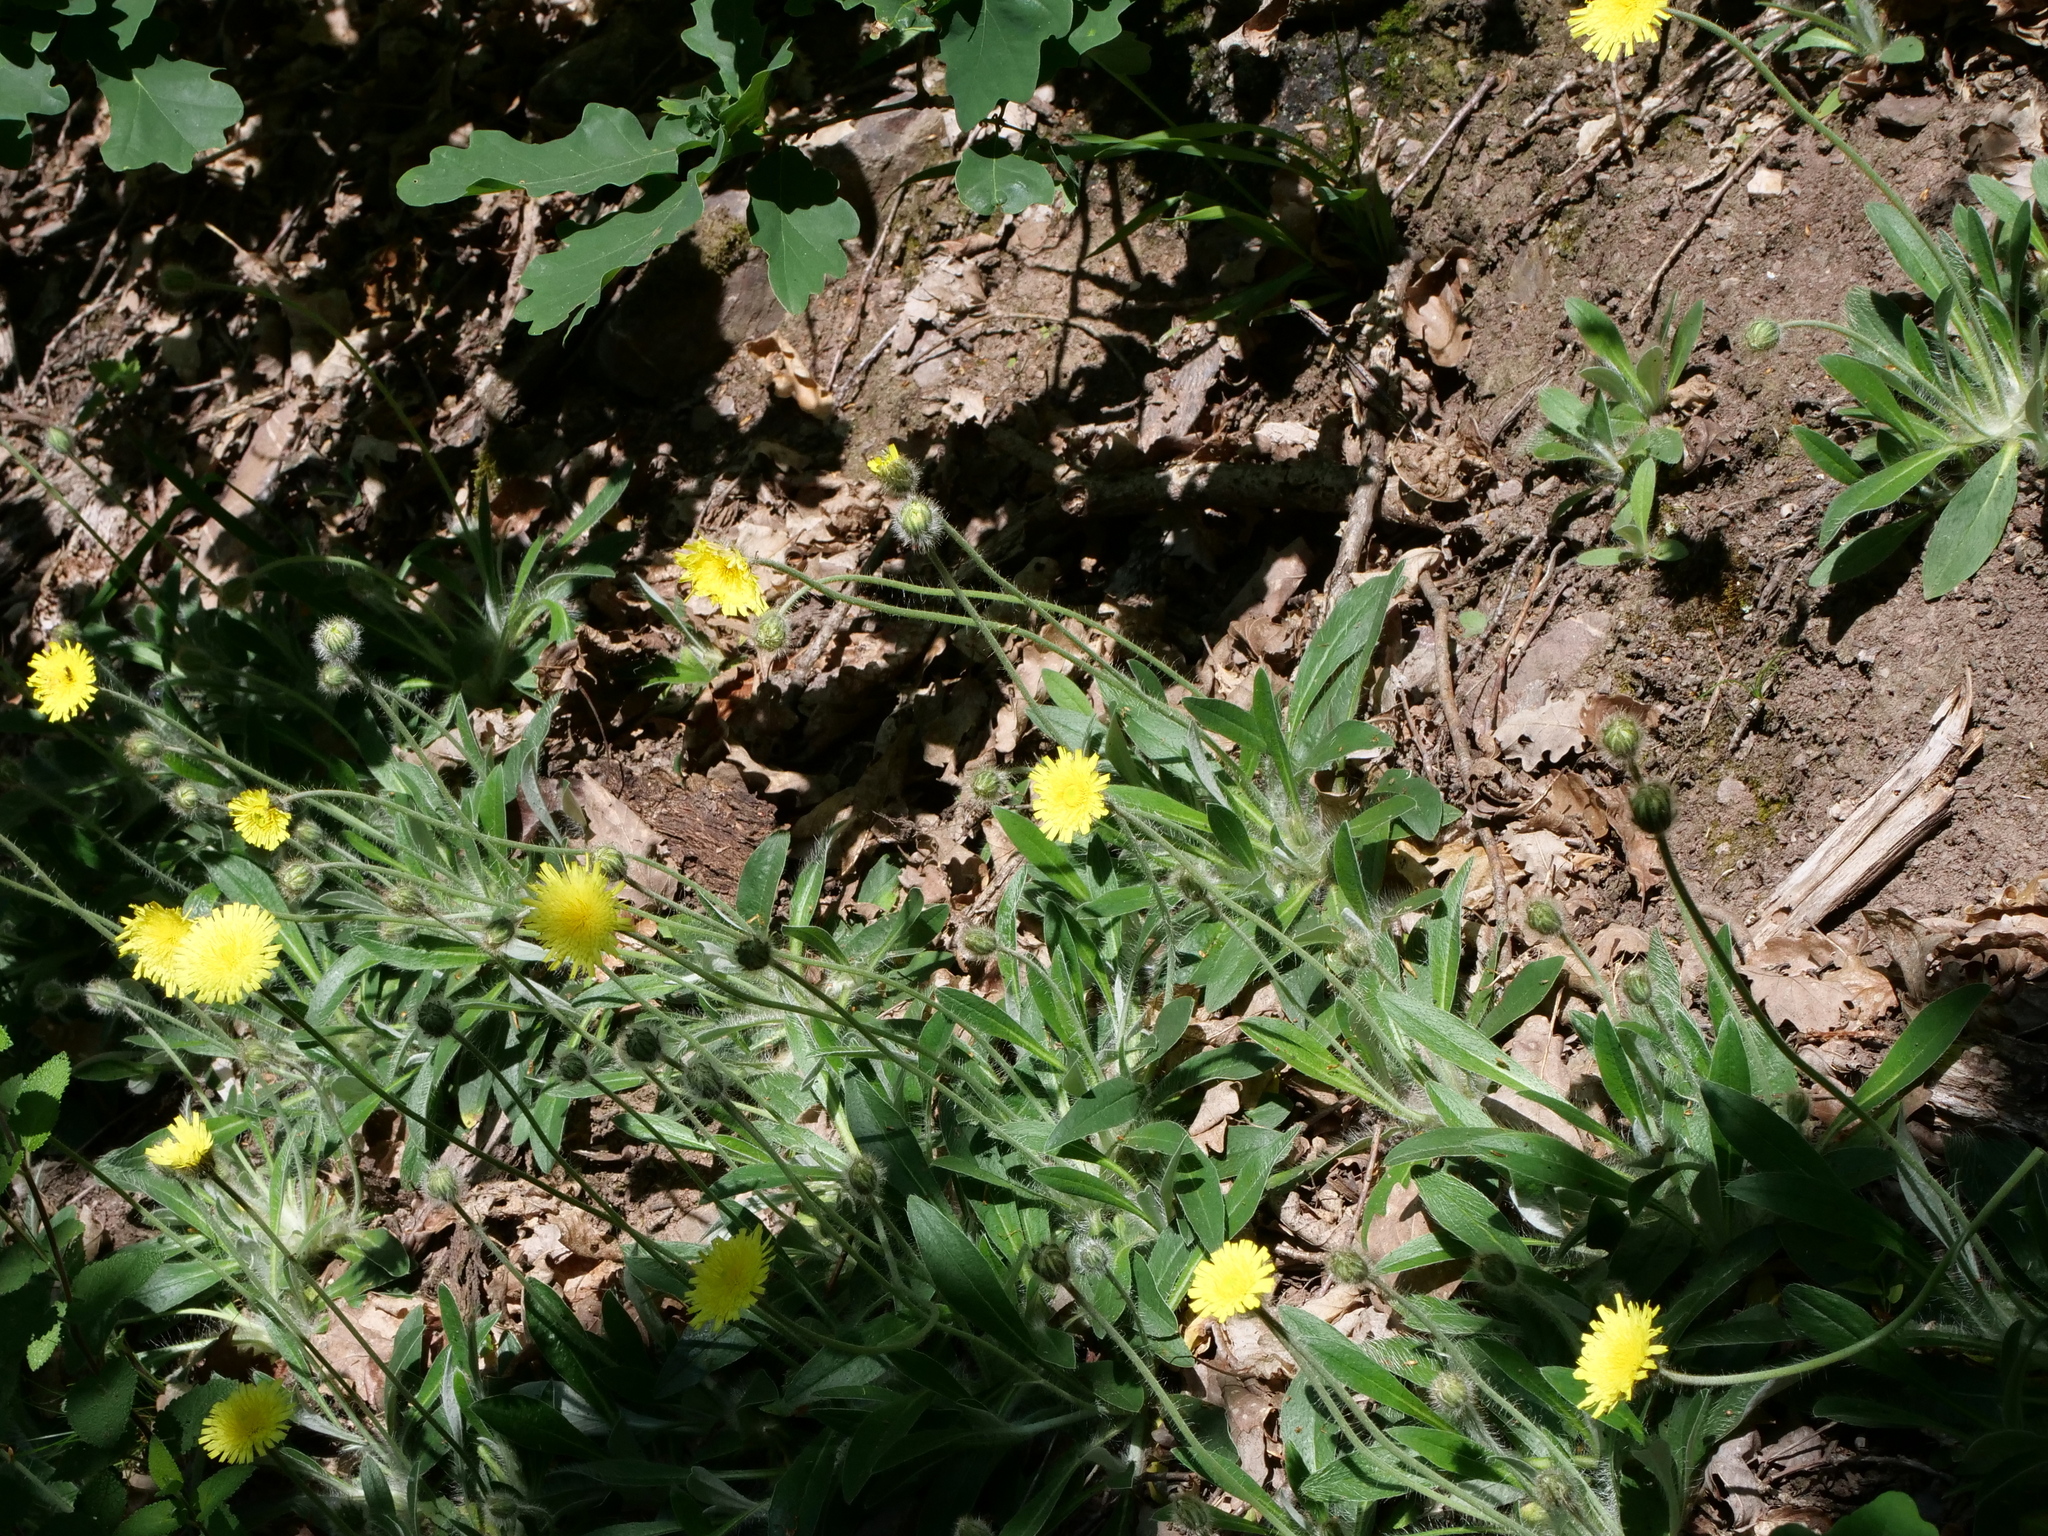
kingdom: Plantae
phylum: Tracheophyta
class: Magnoliopsida
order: Asterales
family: Asteraceae
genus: Pilosella
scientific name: Pilosella peleteriana
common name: Shaggy mouse-ear-hawkweed
